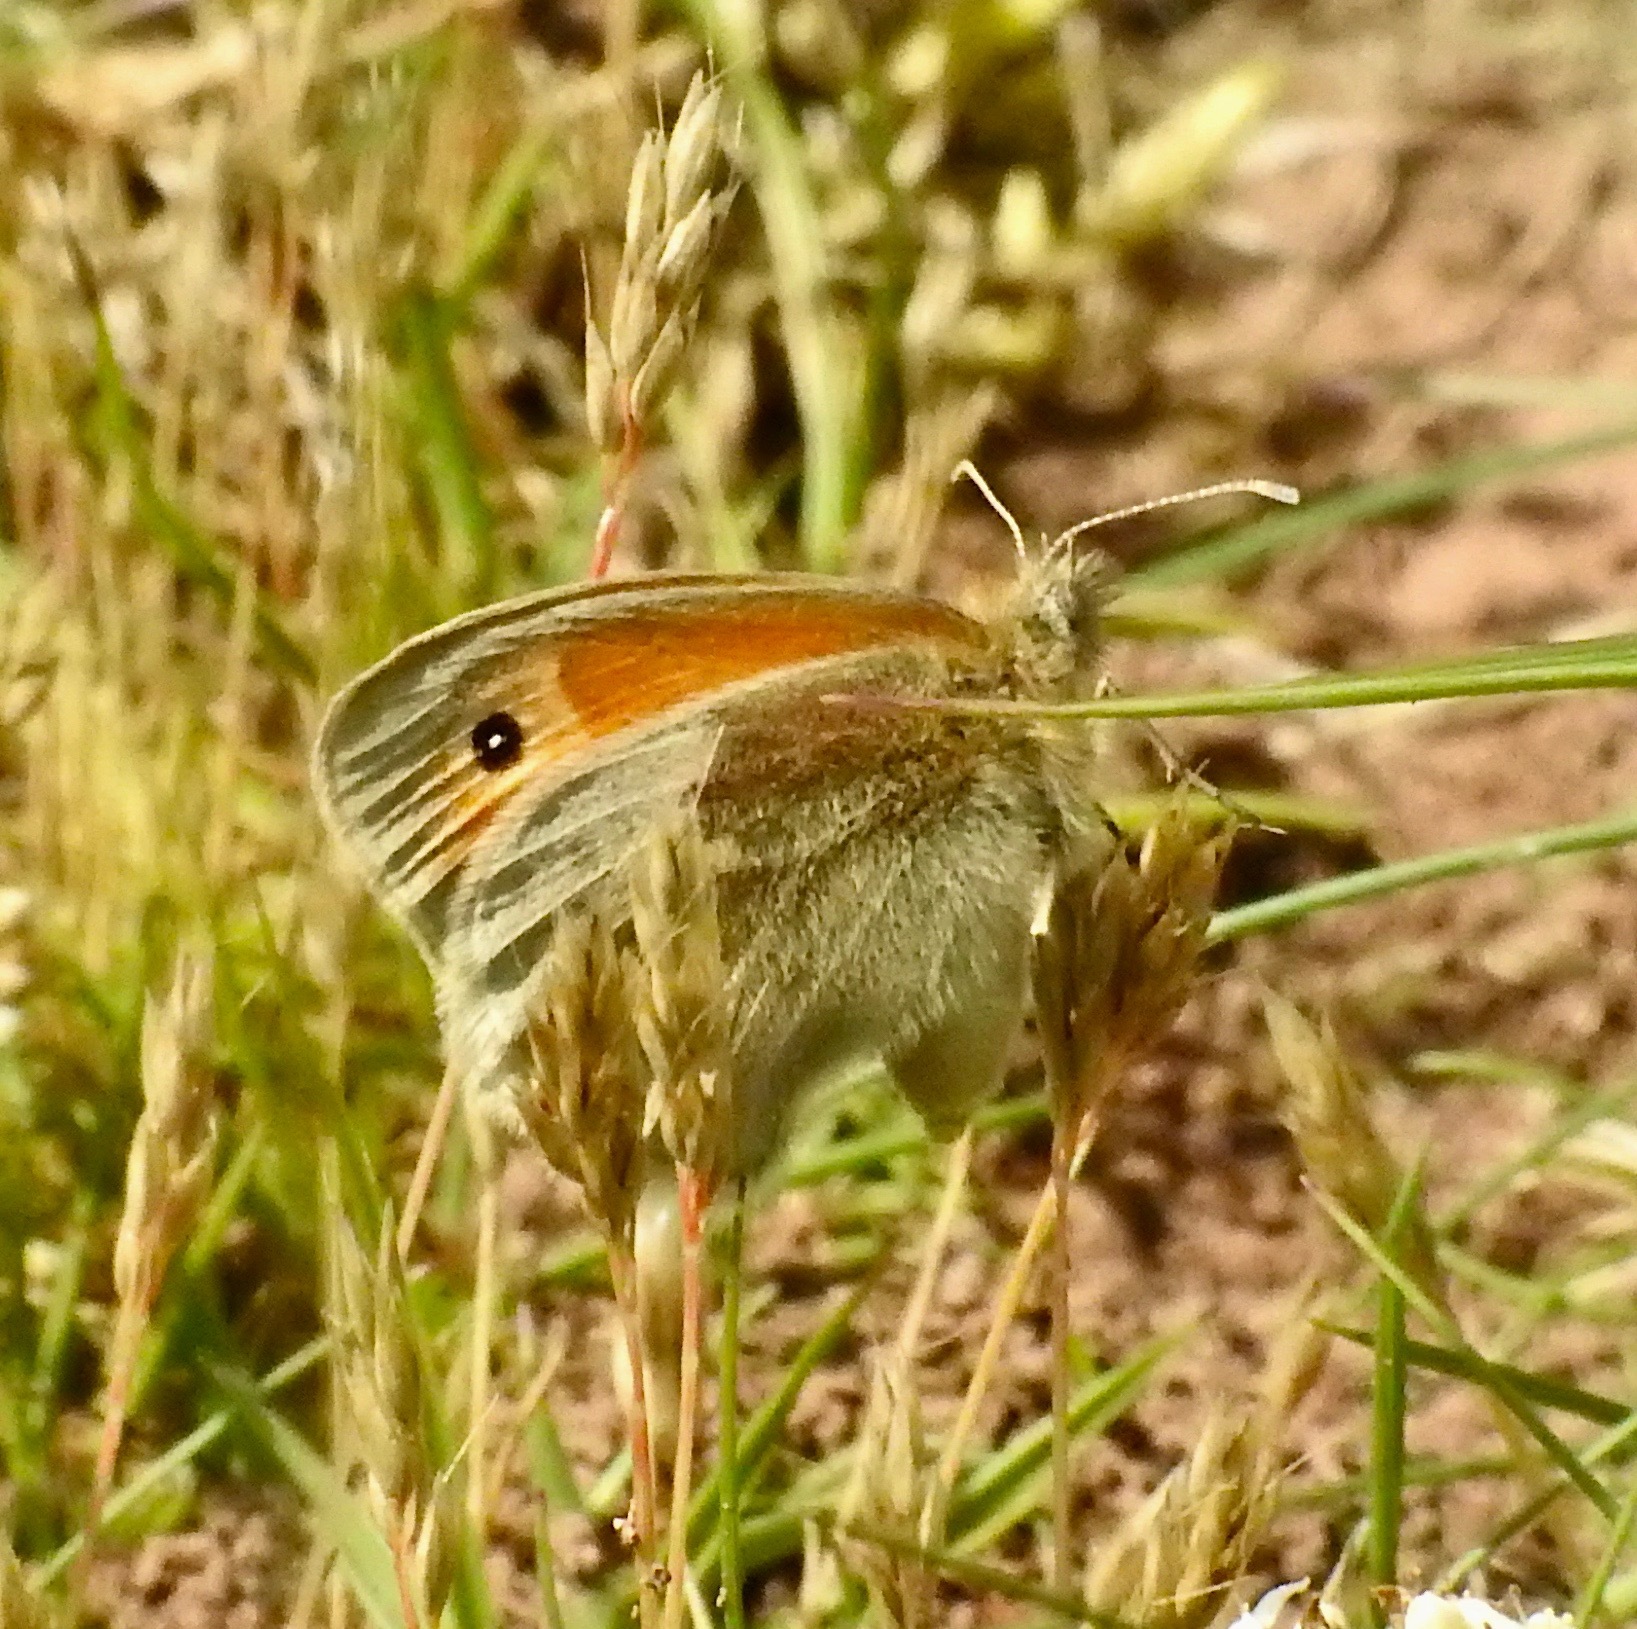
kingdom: Animalia
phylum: Arthropoda
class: Insecta
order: Lepidoptera
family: Nymphalidae
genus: Coenonympha
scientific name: Coenonympha pamphilus
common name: Small heath
